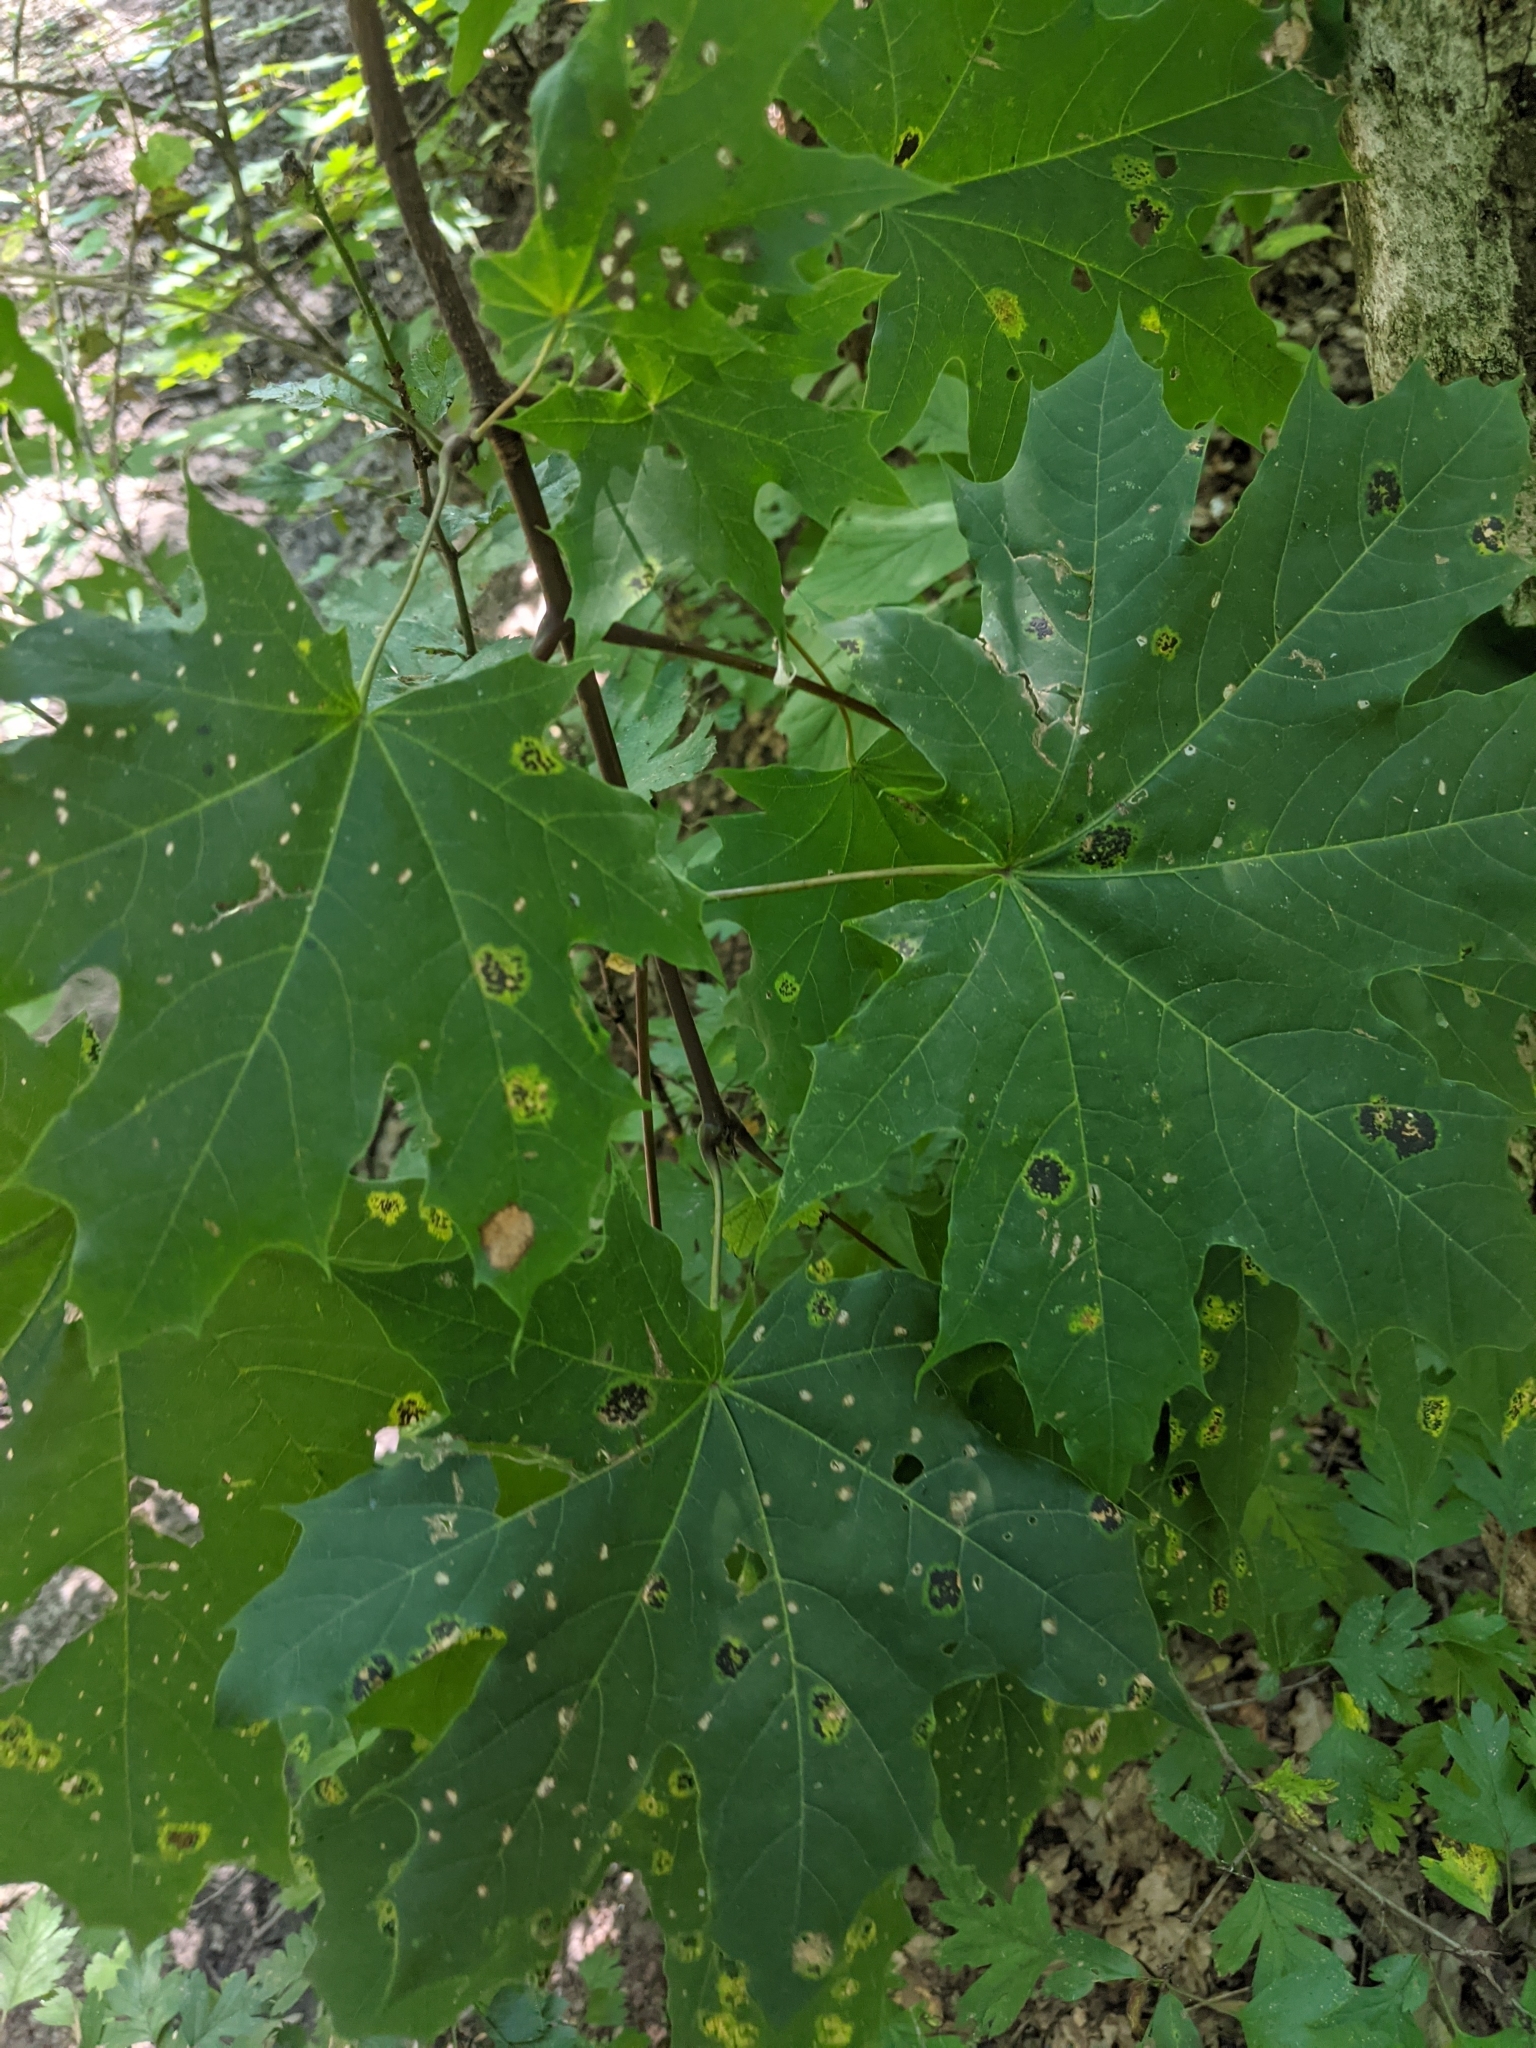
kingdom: Plantae
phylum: Tracheophyta
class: Magnoliopsida
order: Sapindales
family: Sapindaceae
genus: Acer
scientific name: Acer platanoides
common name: Norway maple
